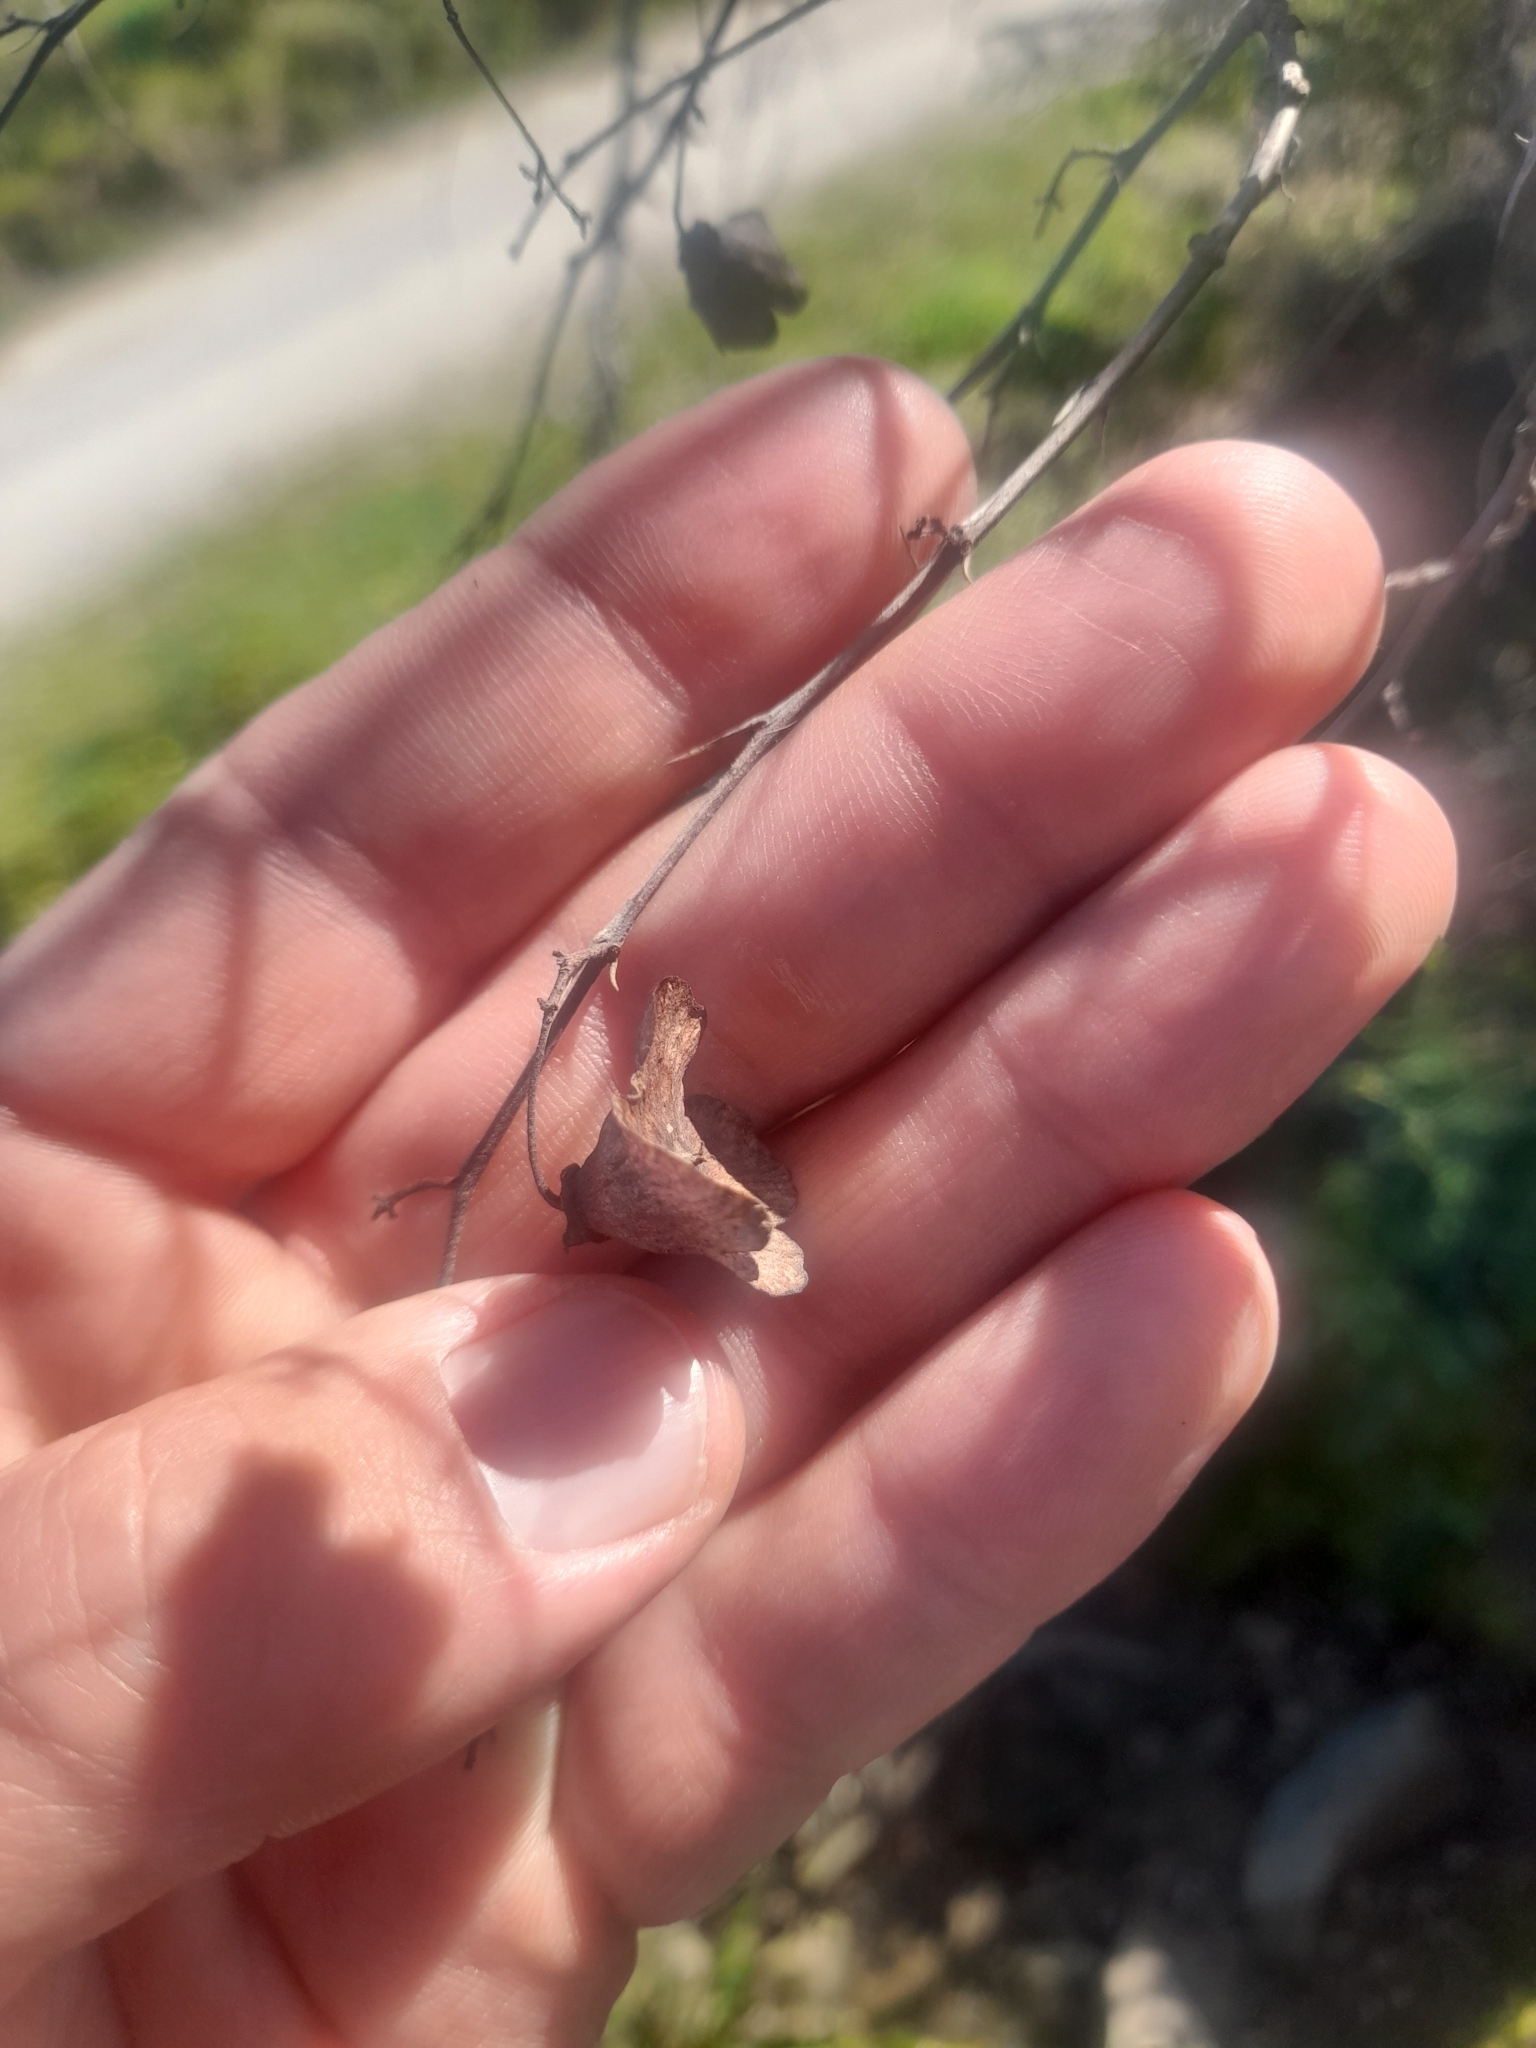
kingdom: Plantae
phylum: Tracheophyta
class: Magnoliopsida
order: Rosales
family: Rhamnaceae
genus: Paliurus
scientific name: Paliurus spina-christi
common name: Jeruselem thorn
